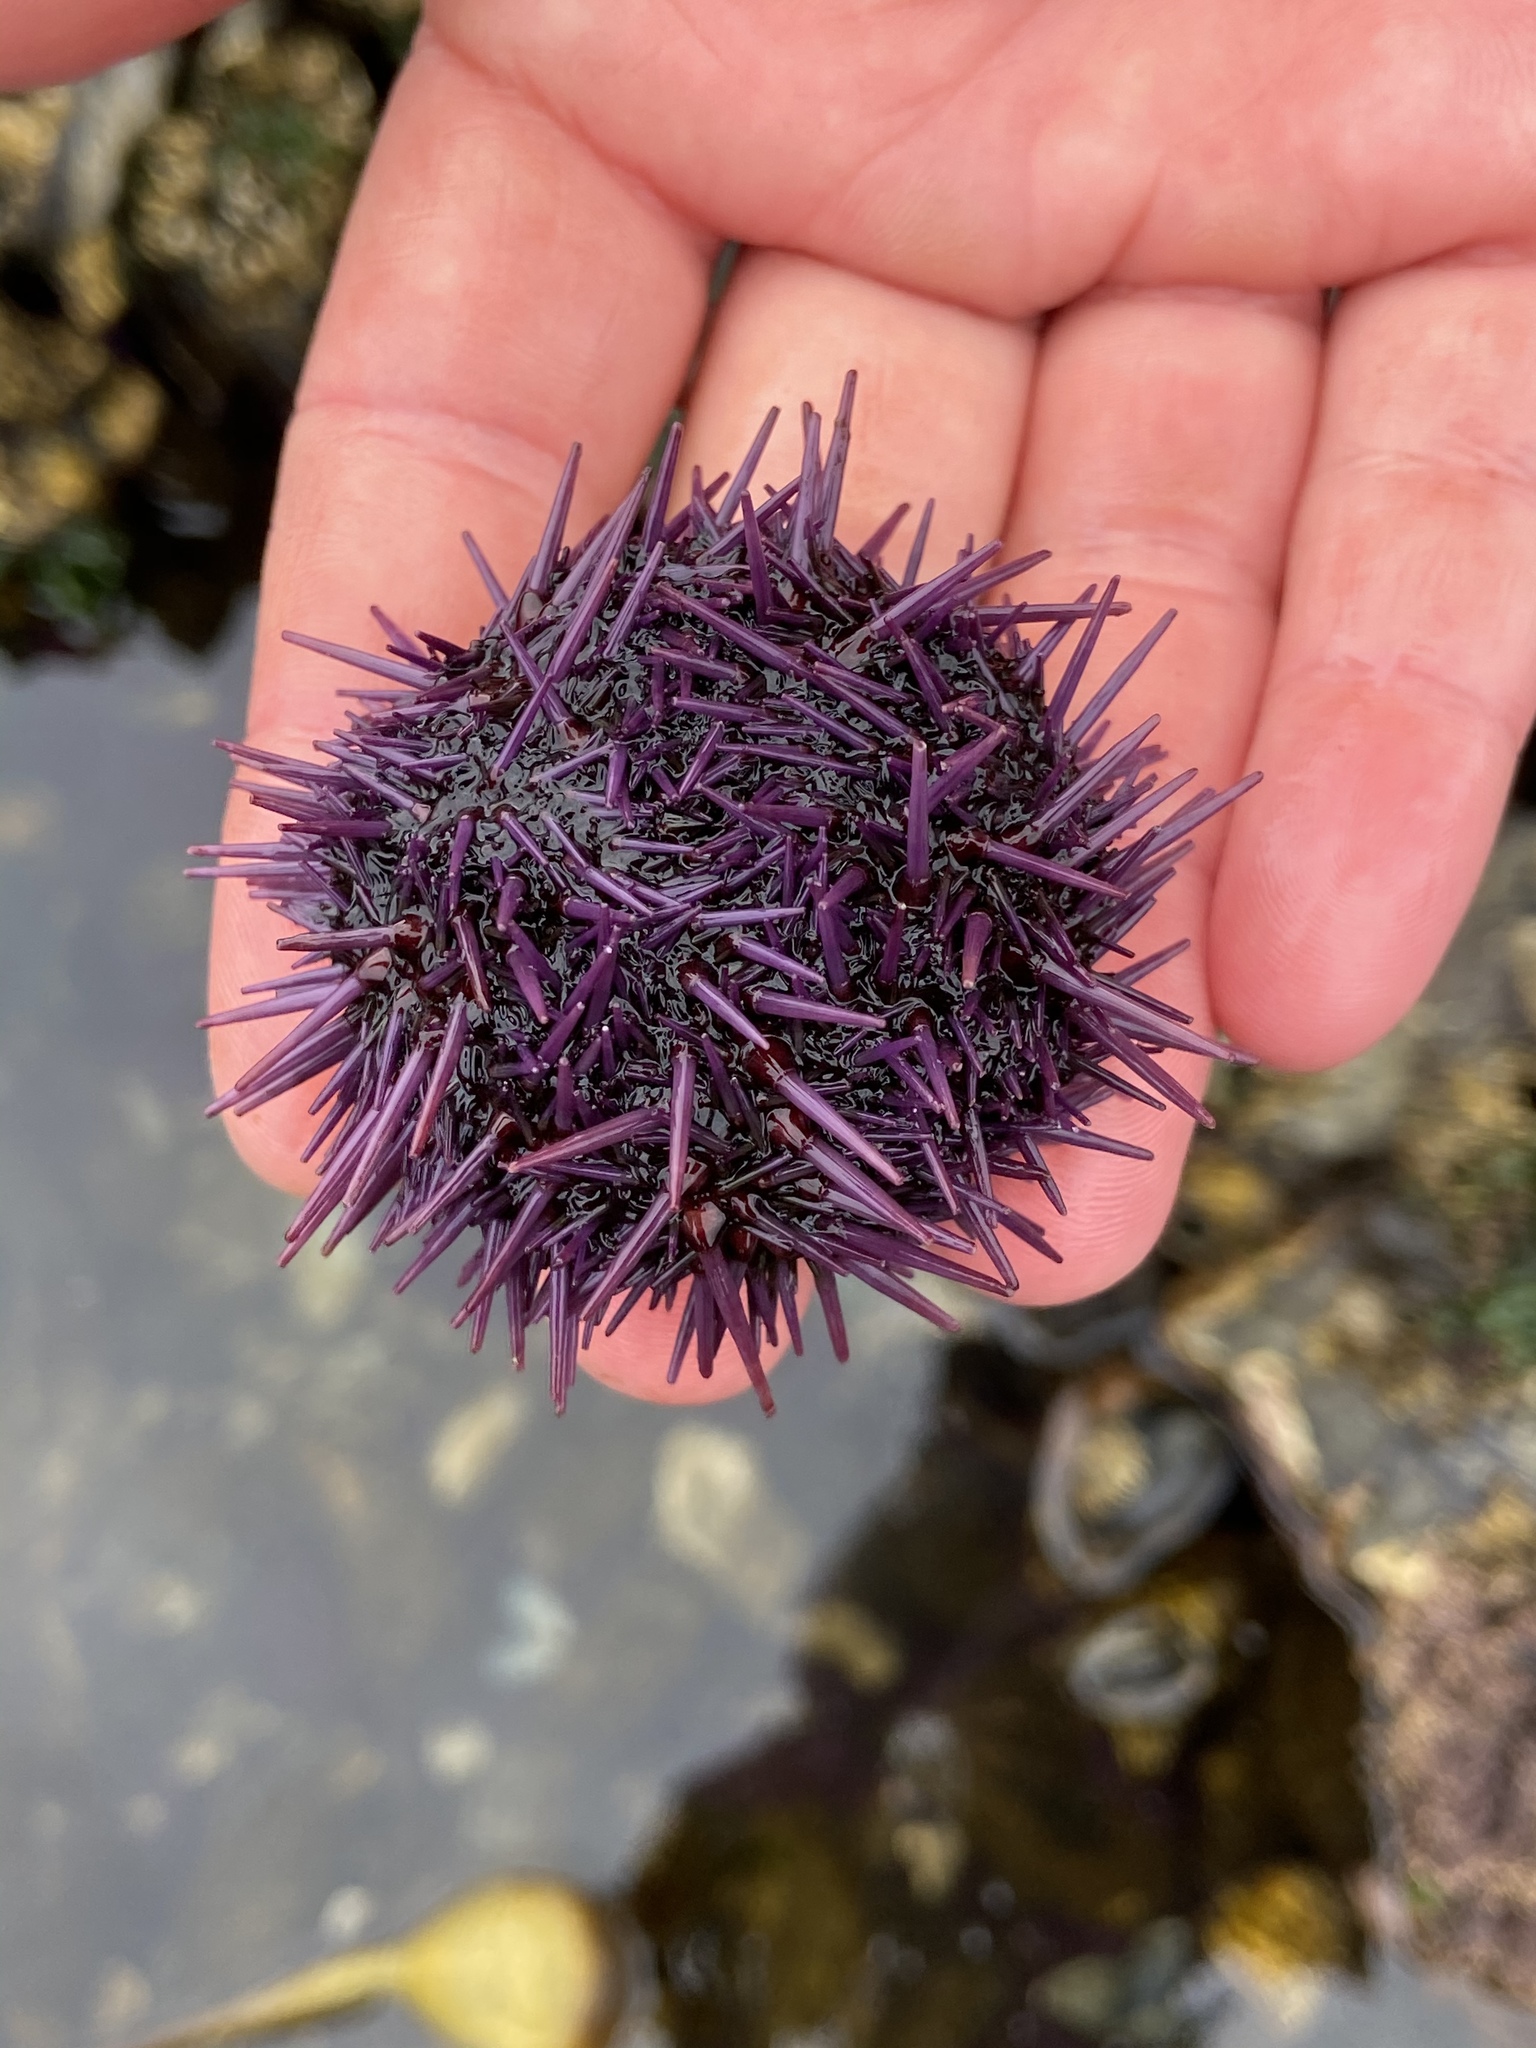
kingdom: Animalia
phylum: Echinodermata
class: Echinoidea
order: Camarodonta
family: Strongylocentrotidae
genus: Strongylocentrotus
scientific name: Strongylocentrotus purpuratus
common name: Purple sea urchin
